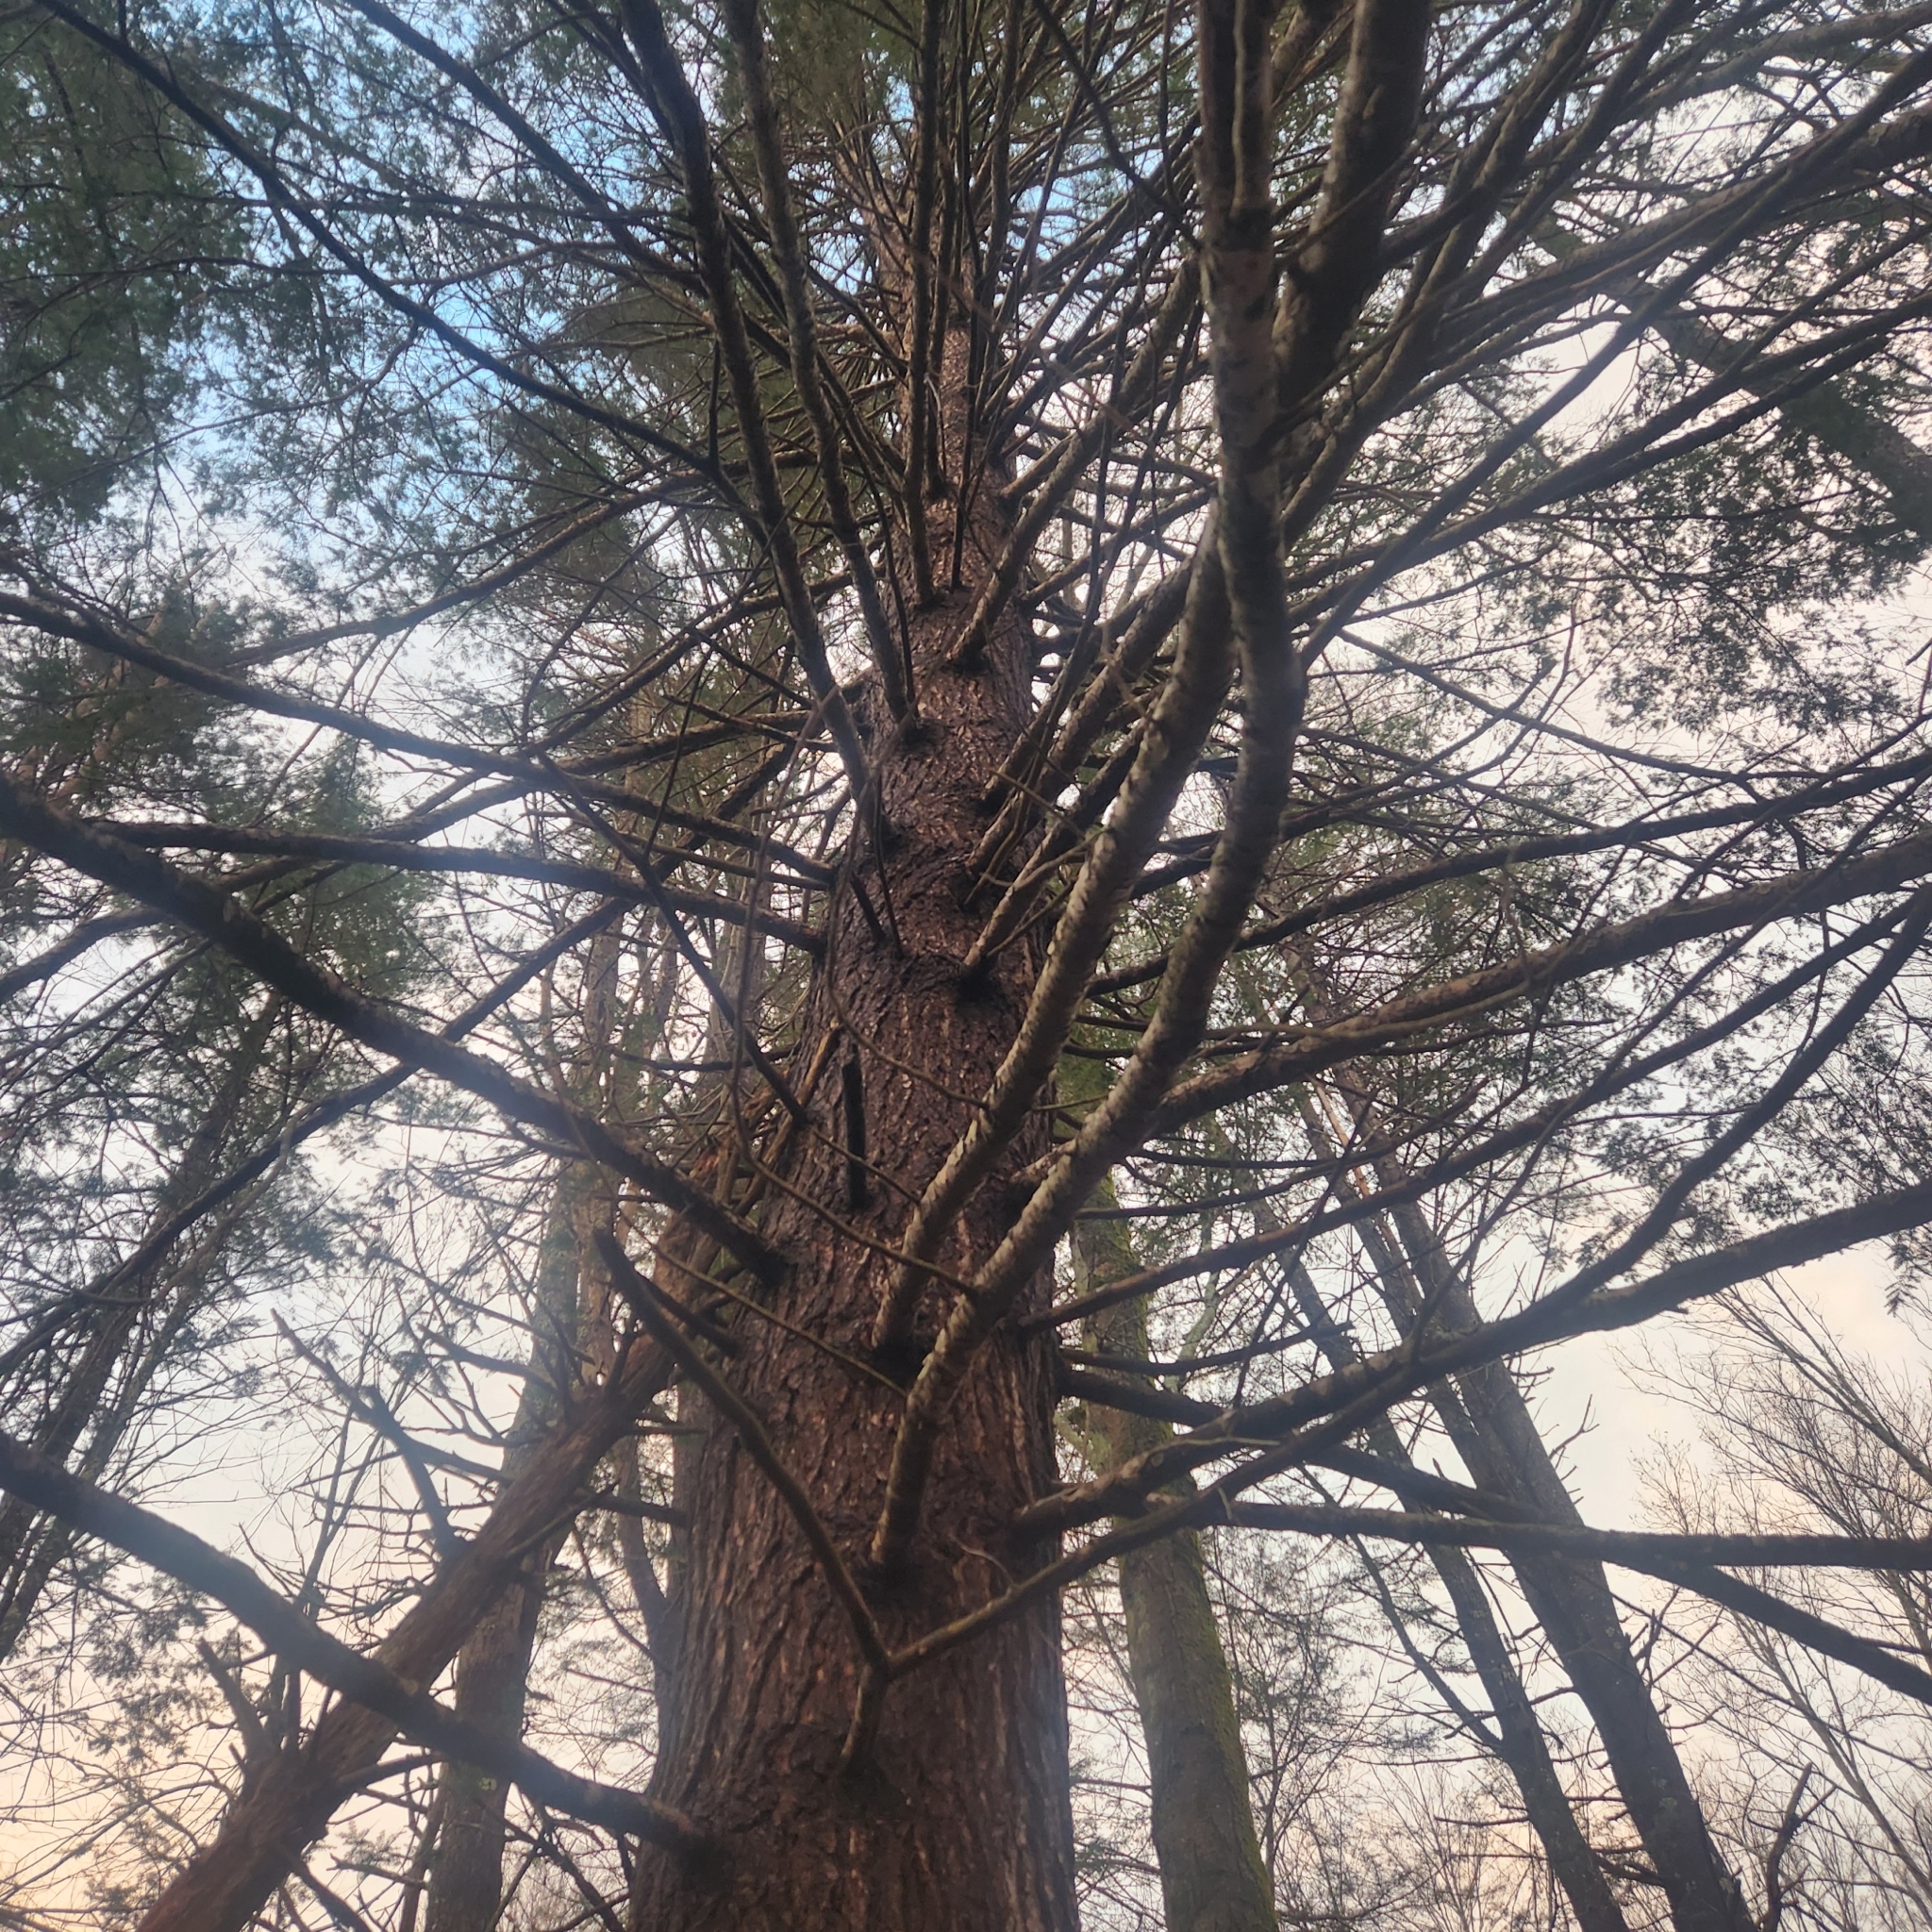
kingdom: Plantae
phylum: Tracheophyta
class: Pinopsida
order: Pinales
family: Pinaceae
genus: Tsuga
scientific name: Tsuga canadensis
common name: Eastern hemlock
